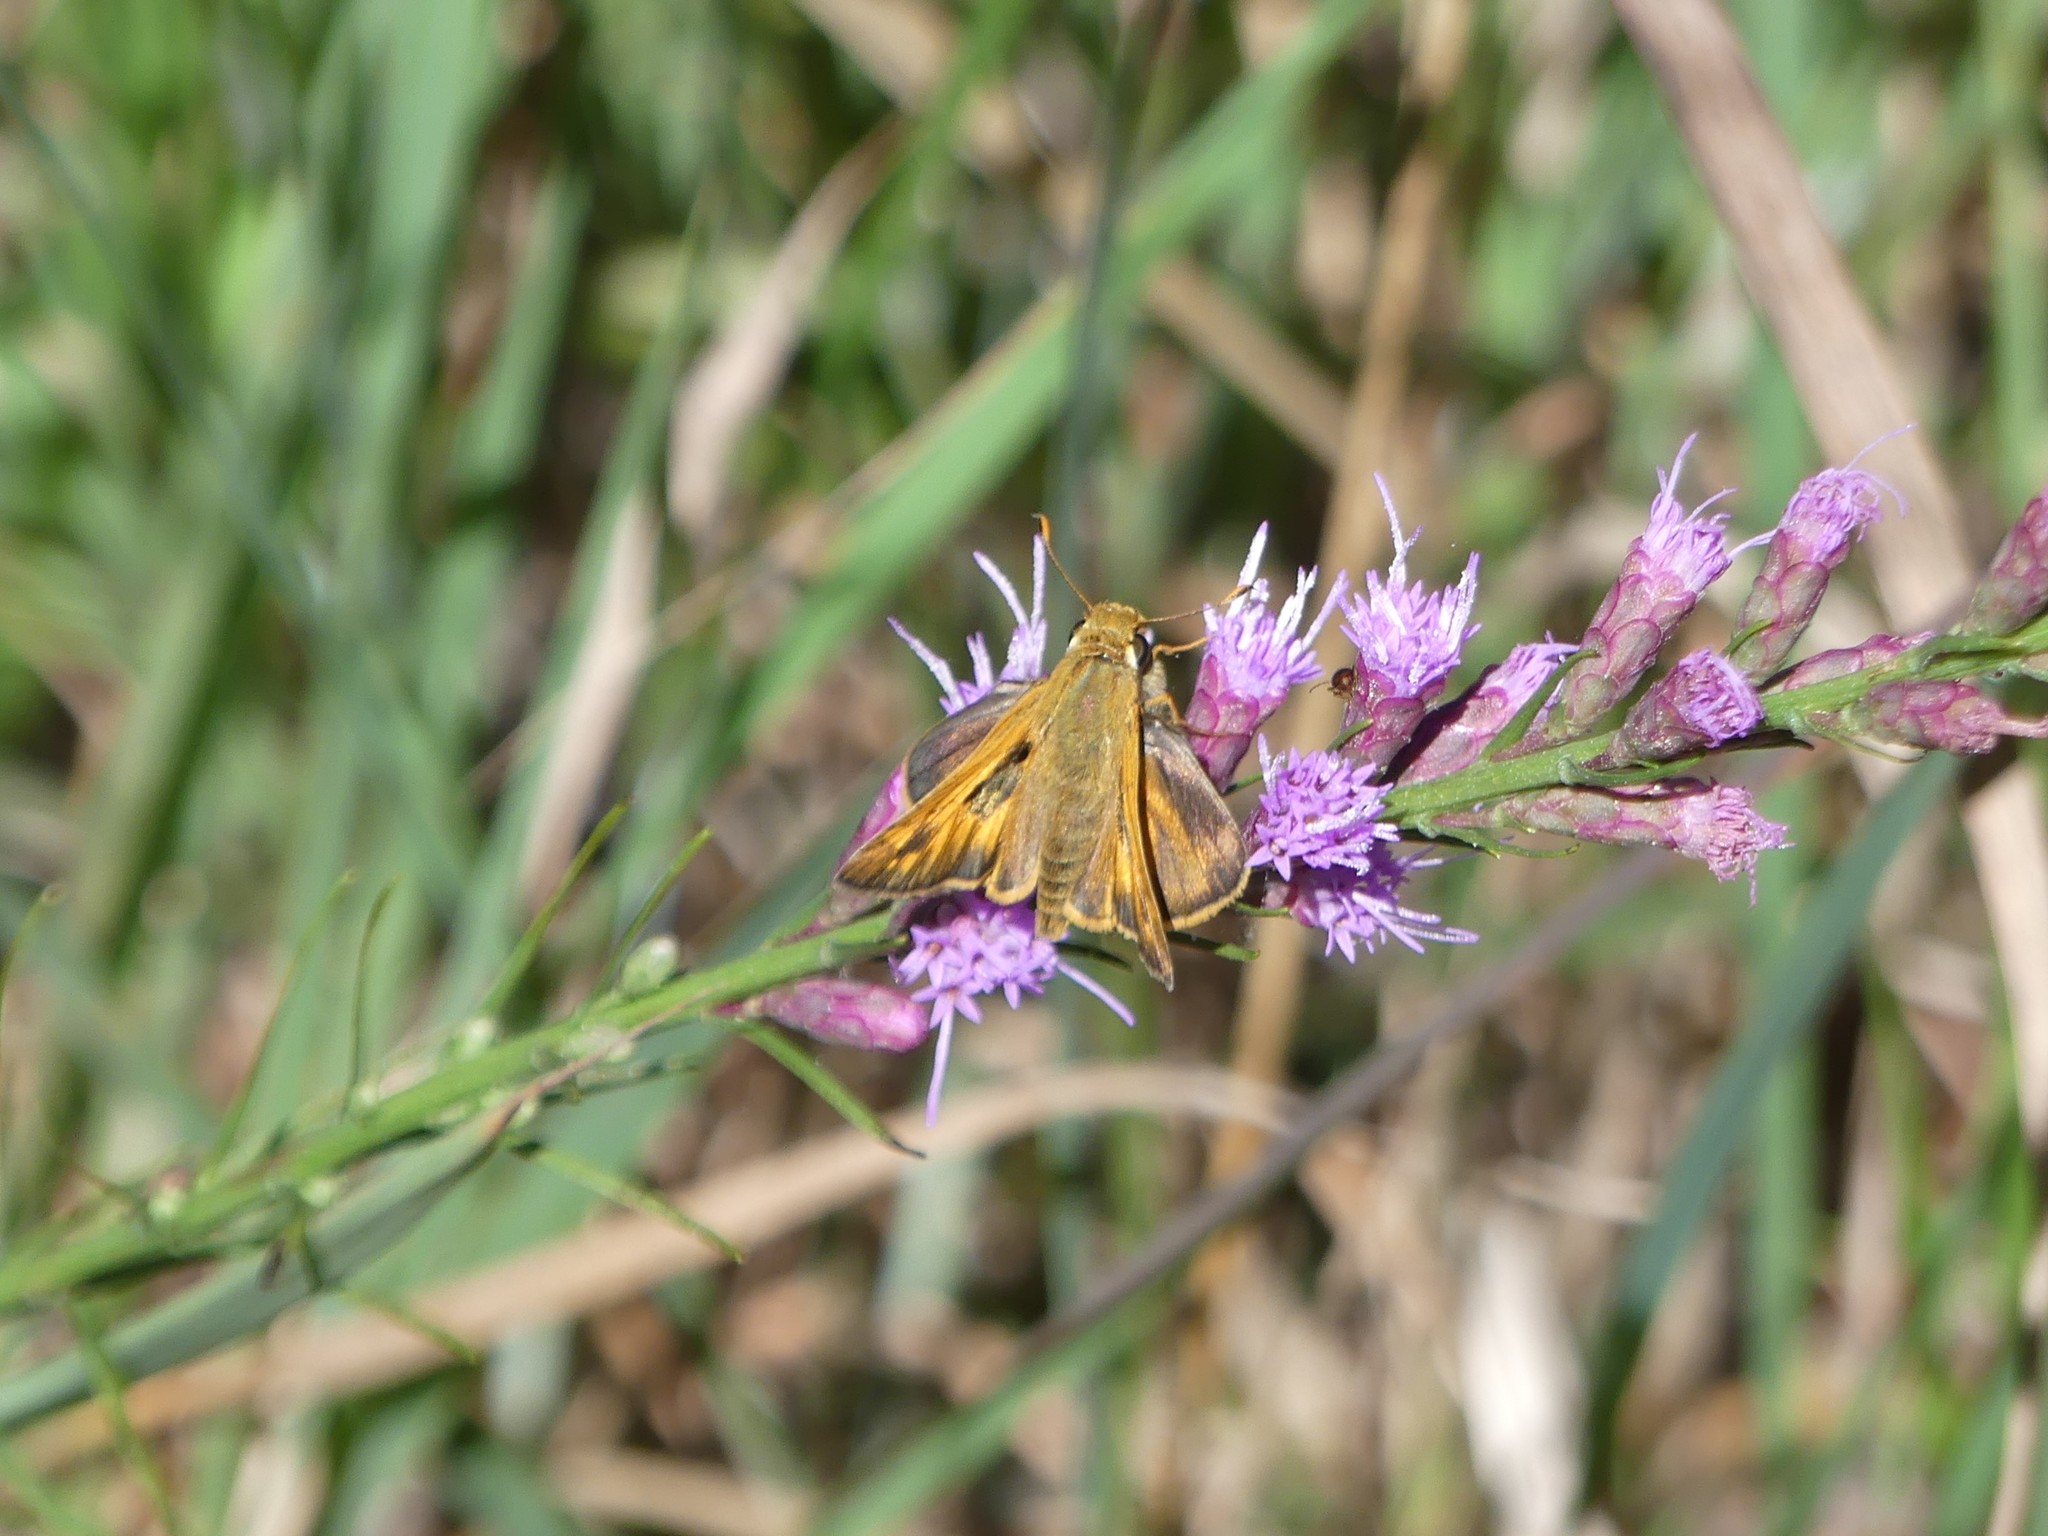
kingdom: Animalia
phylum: Arthropoda
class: Insecta
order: Lepidoptera
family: Hesperiidae
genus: Atalopedes
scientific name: Atalopedes
